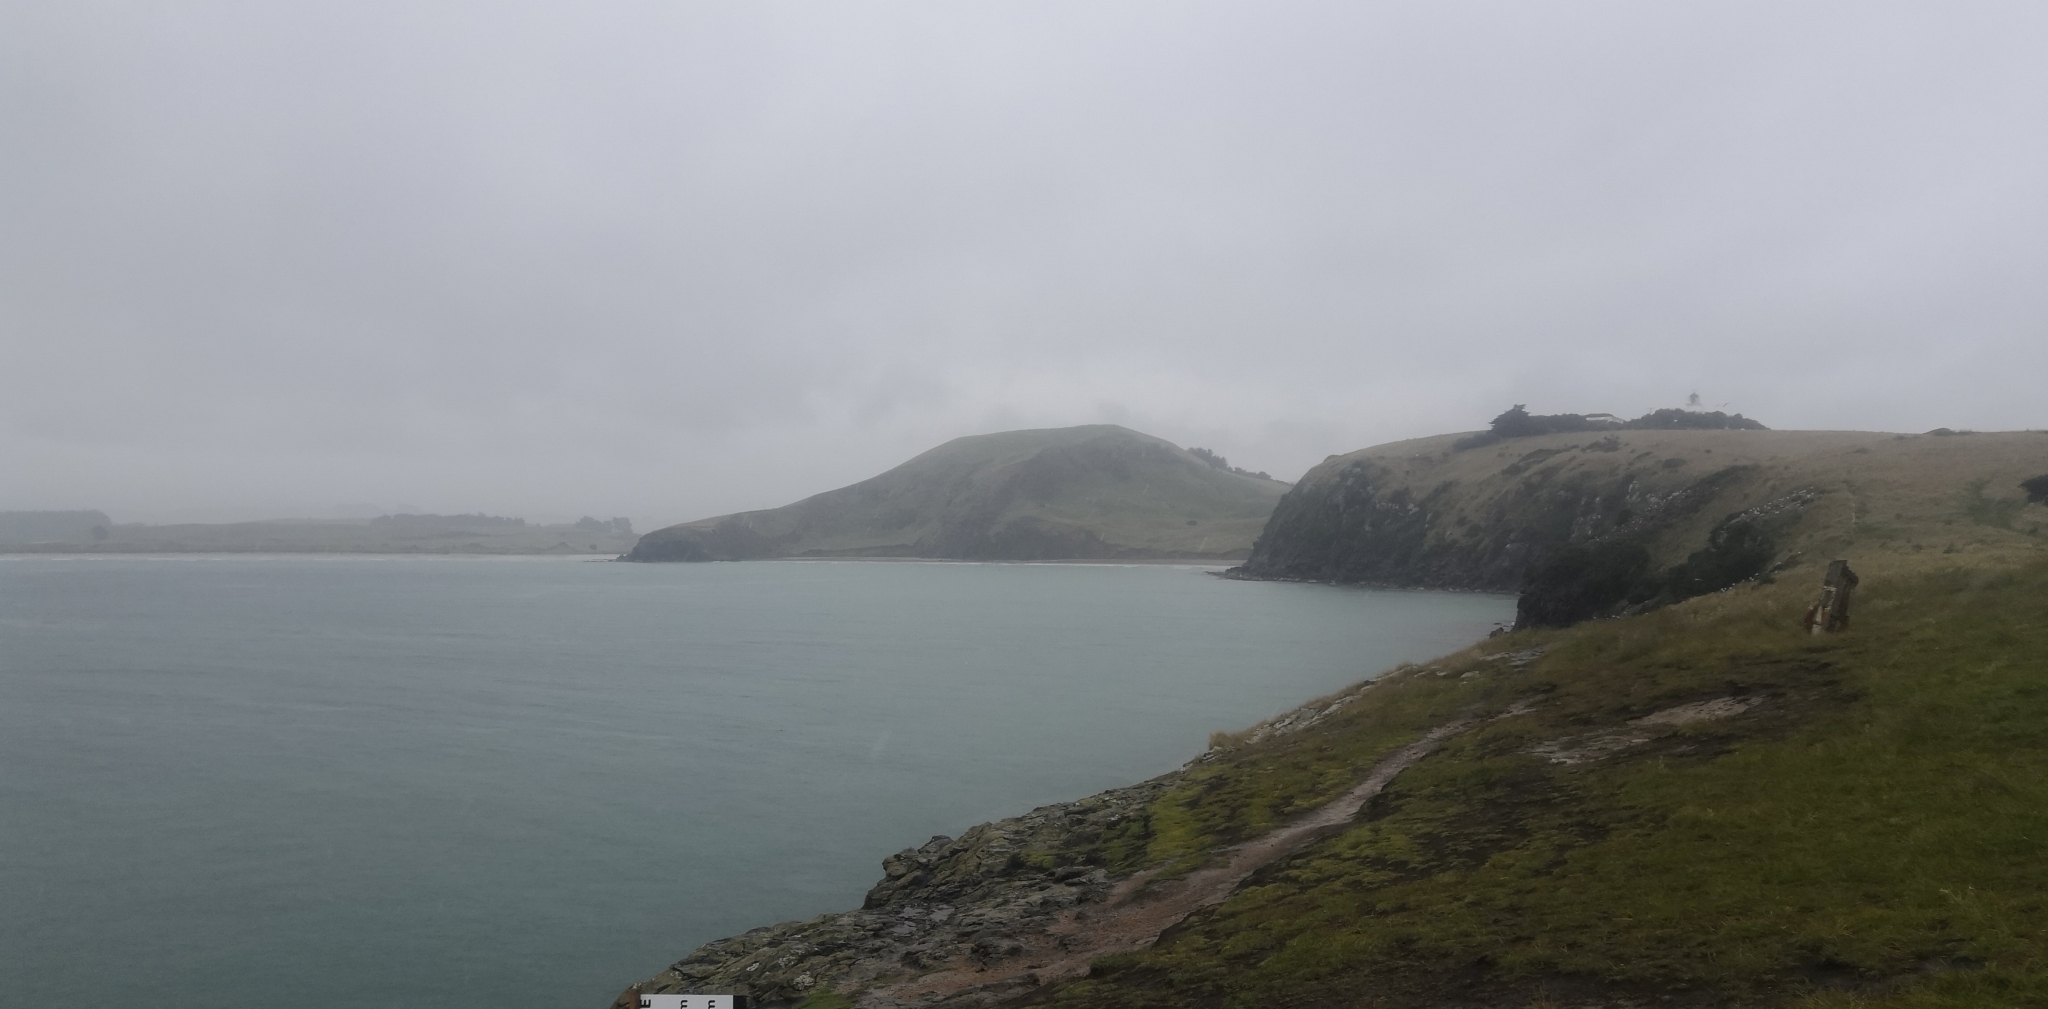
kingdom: Animalia
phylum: Chordata
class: Aves
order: Sphenisciformes
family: Spheniscidae
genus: Megadyptes
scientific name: Megadyptes antipodes
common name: Yellow-eyed penguin
